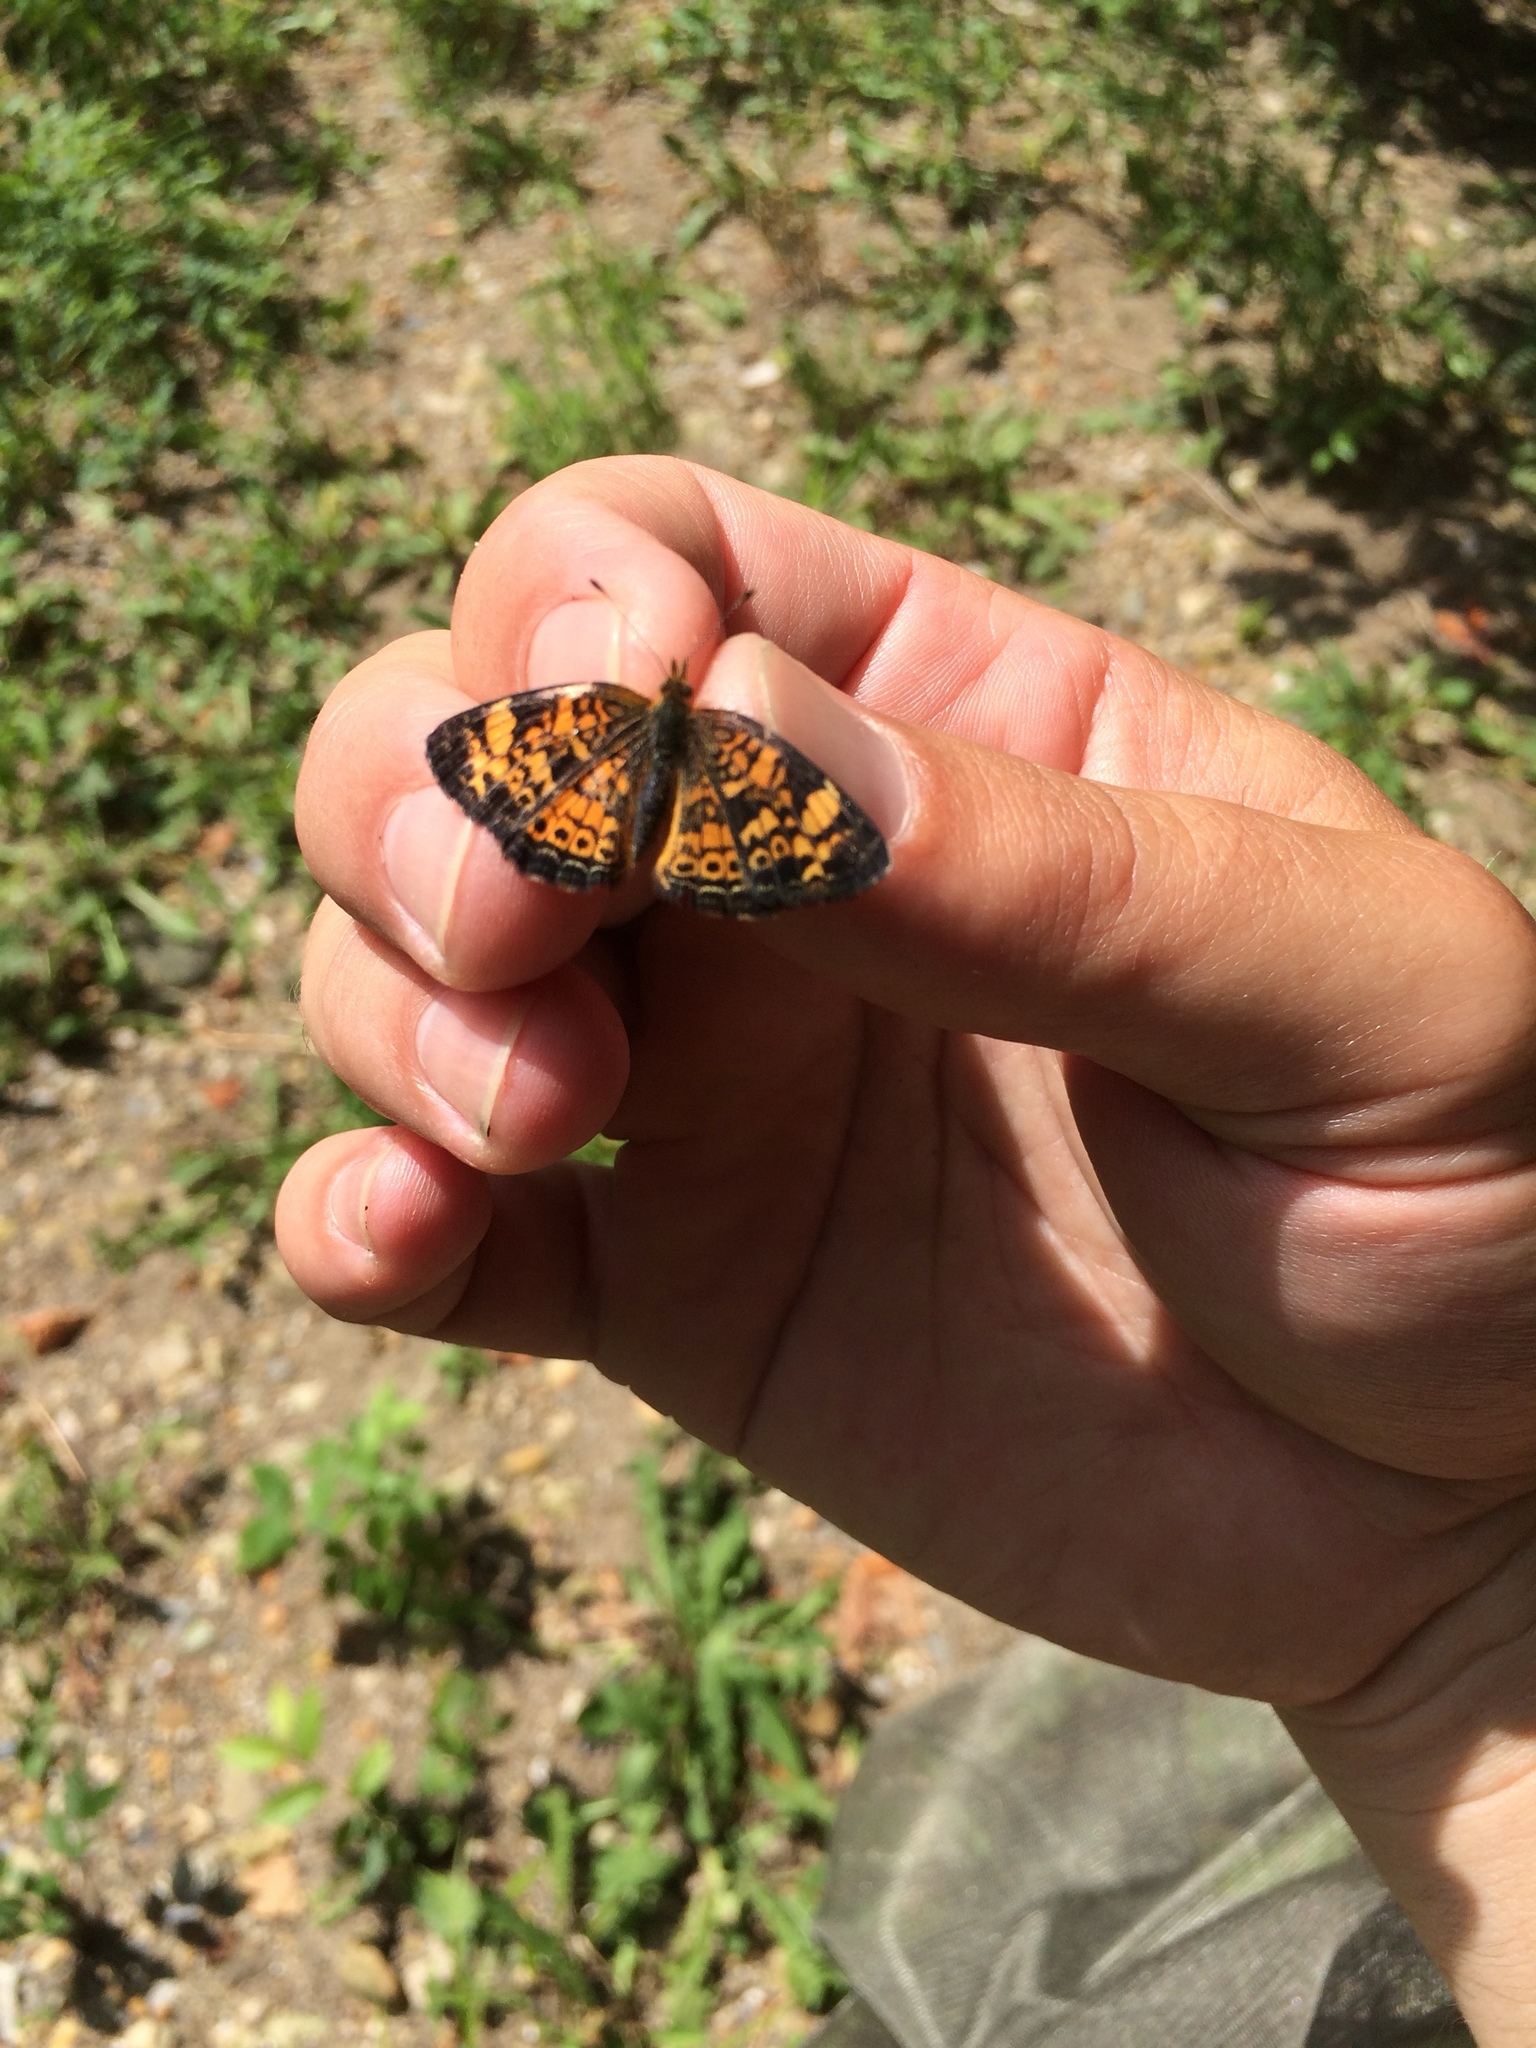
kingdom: Animalia
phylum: Arthropoda
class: Insecta
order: Lepidoptera
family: Nymphalidae
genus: Phyciodes
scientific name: Phyciodes tharos
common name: Pearl crescent
